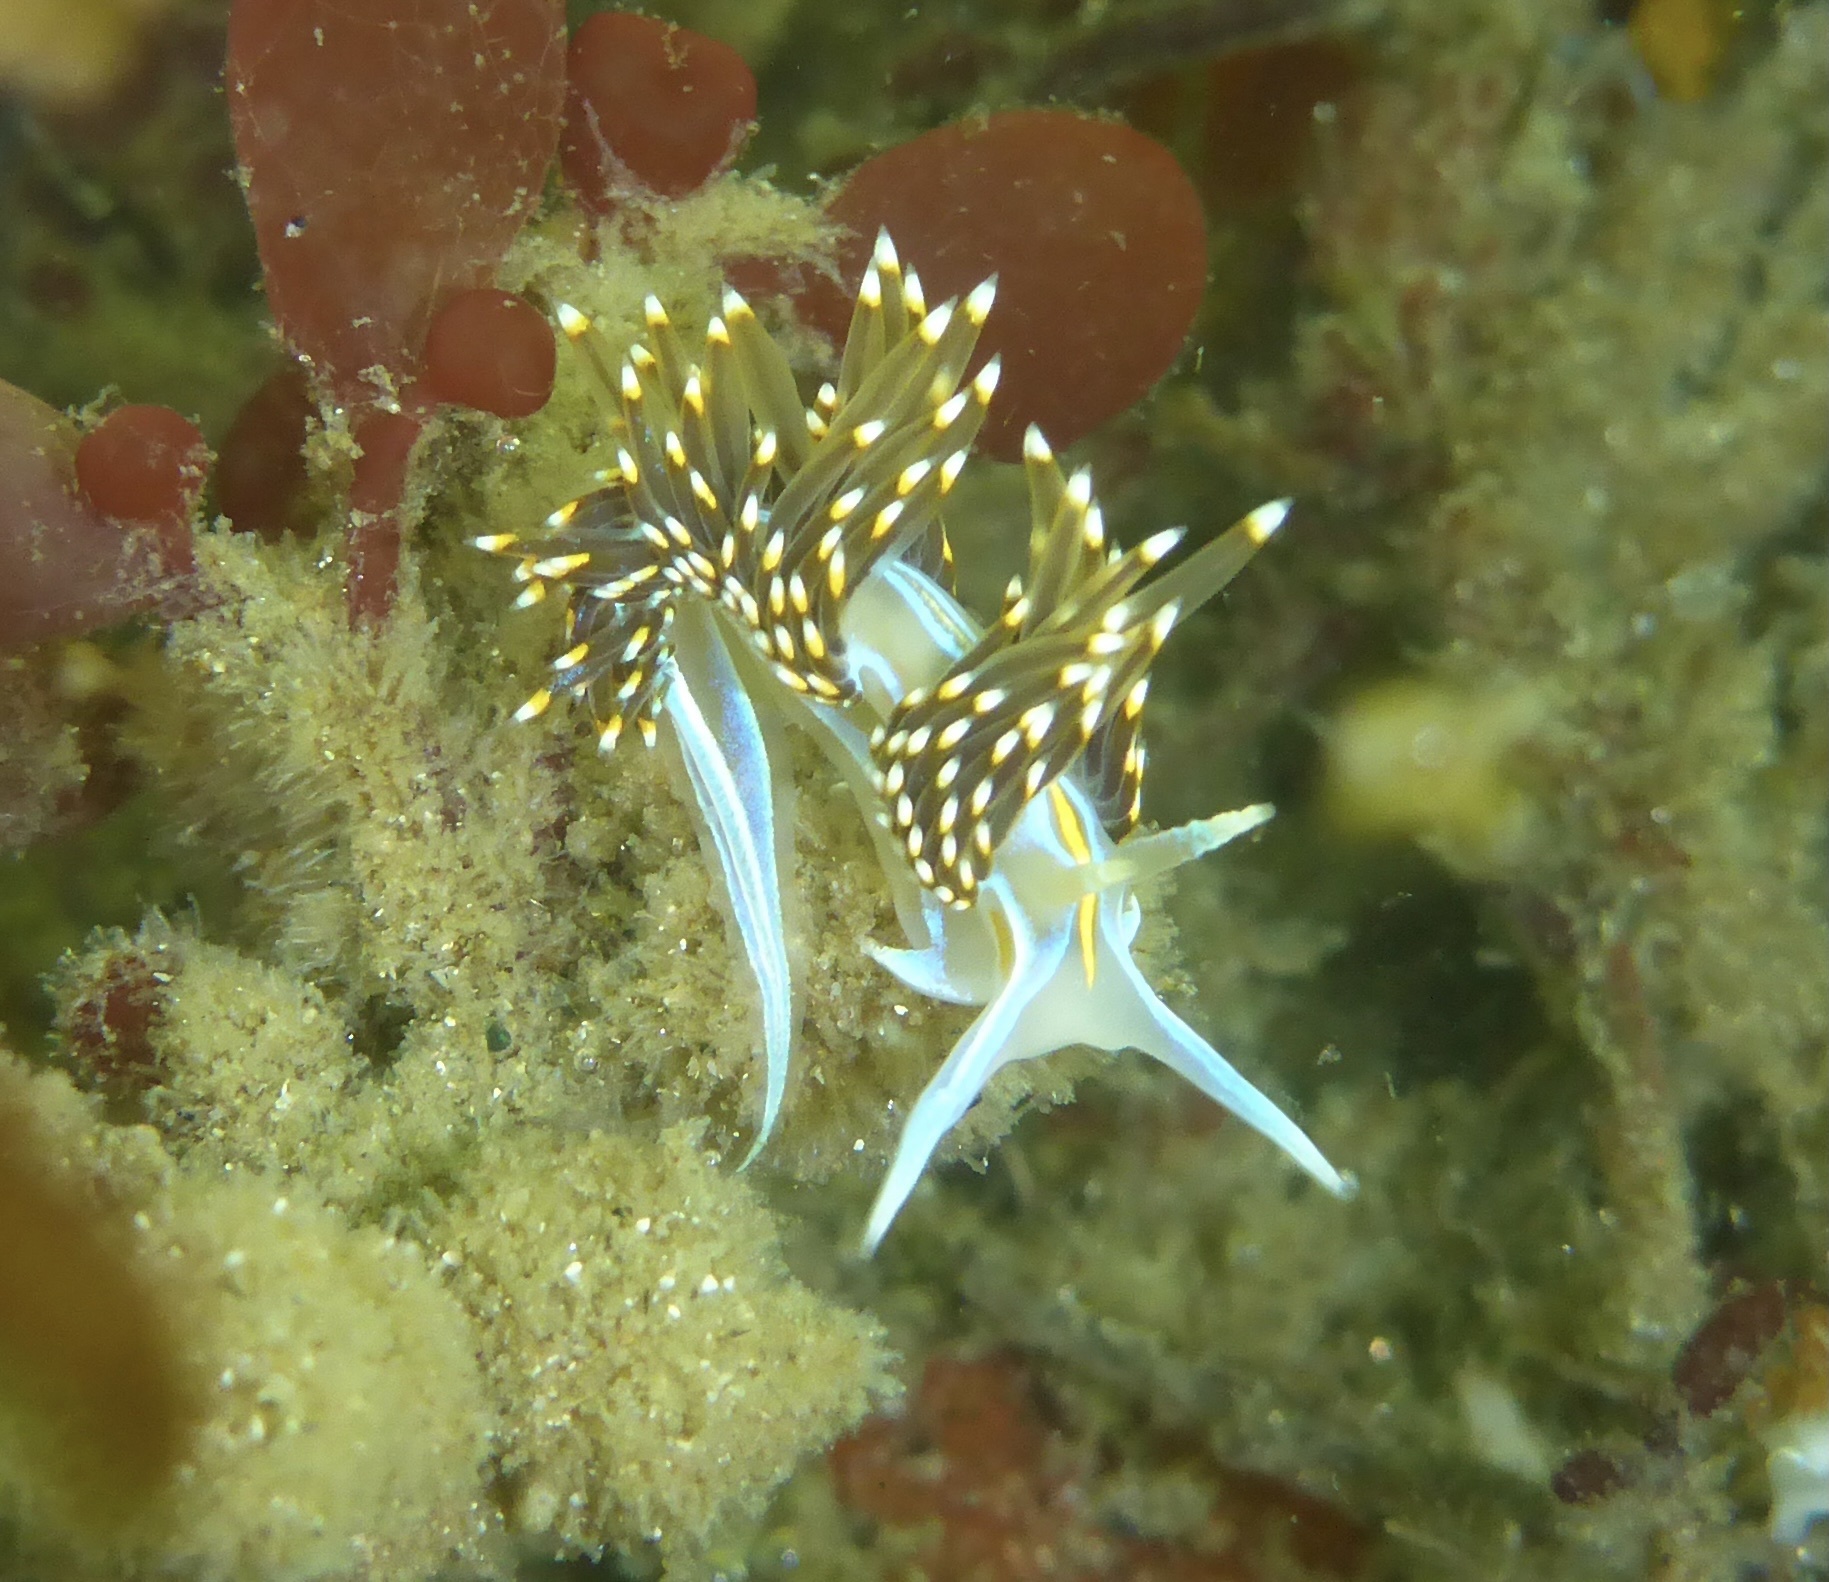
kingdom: Animalia
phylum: Mollusca
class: Gastropoda
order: Nudibranchia
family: Myrrhinidae
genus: Hermissenda
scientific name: Hermissenda opalescens
